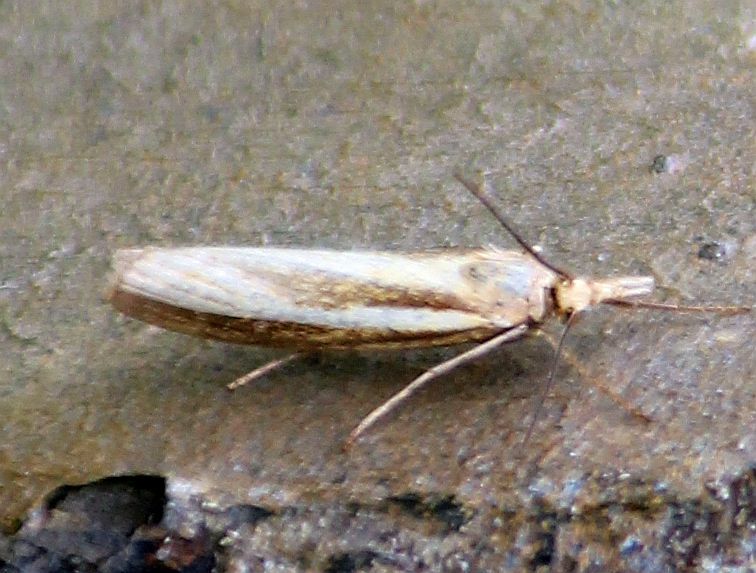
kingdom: Animalia
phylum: Arthropoda
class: Insecta
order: Lepidoptera
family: Crambidae
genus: Agriphila
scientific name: Agriphila tristellus
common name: Common grass-veneer
